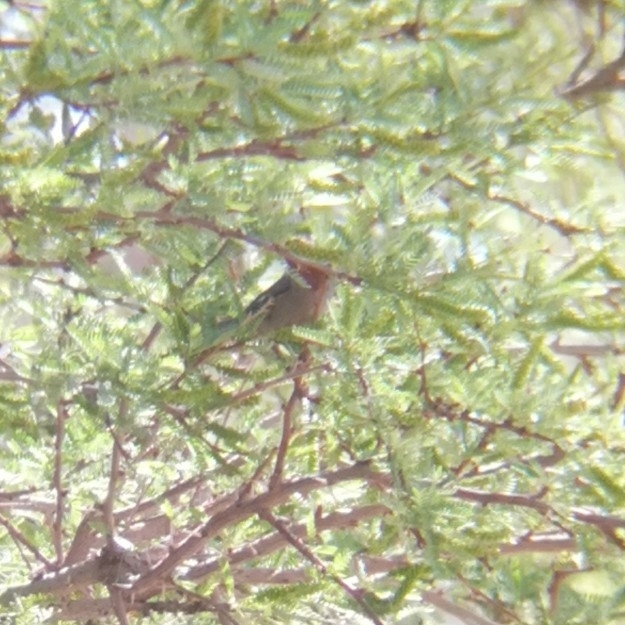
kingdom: Animalia
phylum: Chordata
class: Aves
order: Passeriformes
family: Thraupidae
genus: Conirostrum
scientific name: Conirostrum tamarugense
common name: Tamarugo conebill
